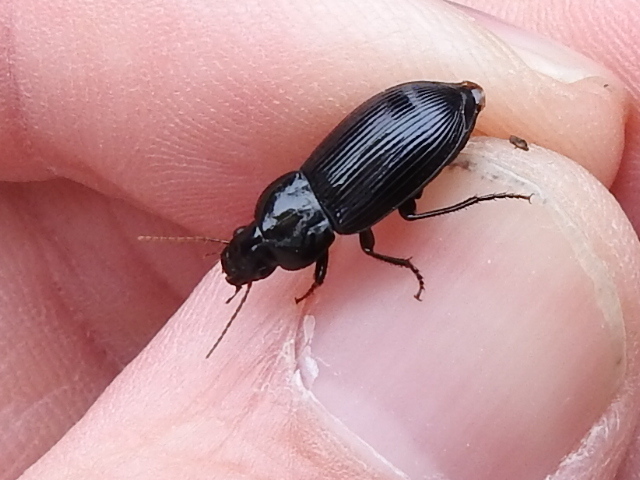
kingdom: Animalia
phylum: Arthropoda
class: Insecta
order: Coleoptera
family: Carabidae
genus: Aztecarpalus
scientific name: Aztecarpalus schaefferi
